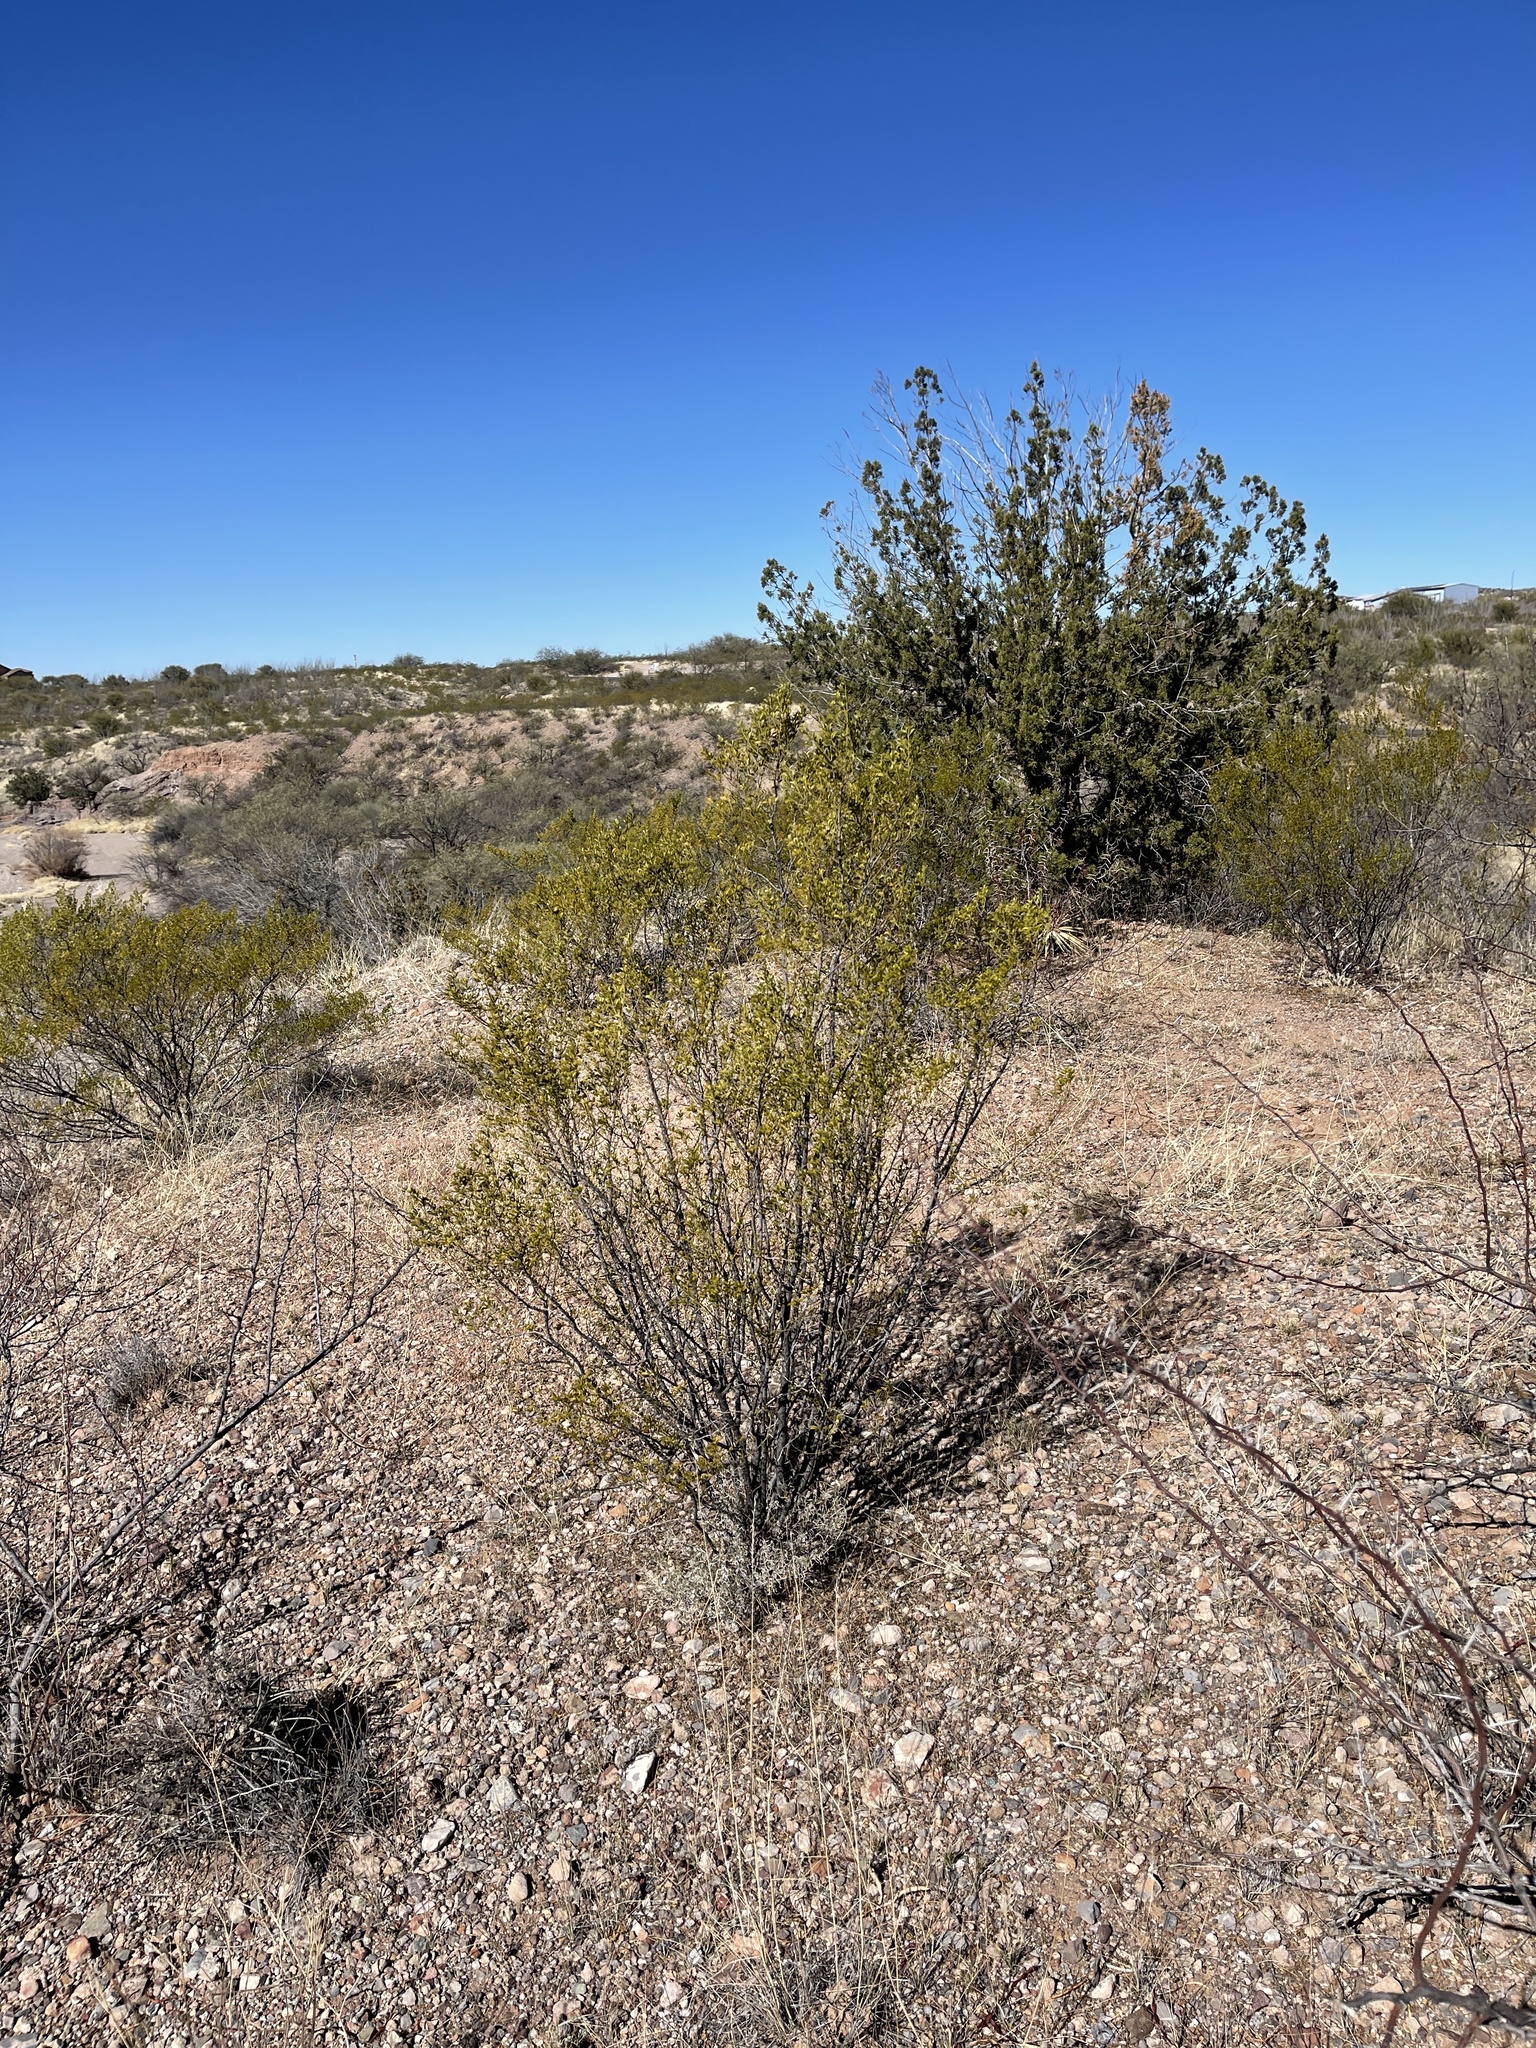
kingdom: Plantae
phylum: Tracheophyta
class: Magnoliopsida
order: Zygophyllales
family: Zygophyllaceae
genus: Larrea
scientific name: Larrea tridentata
